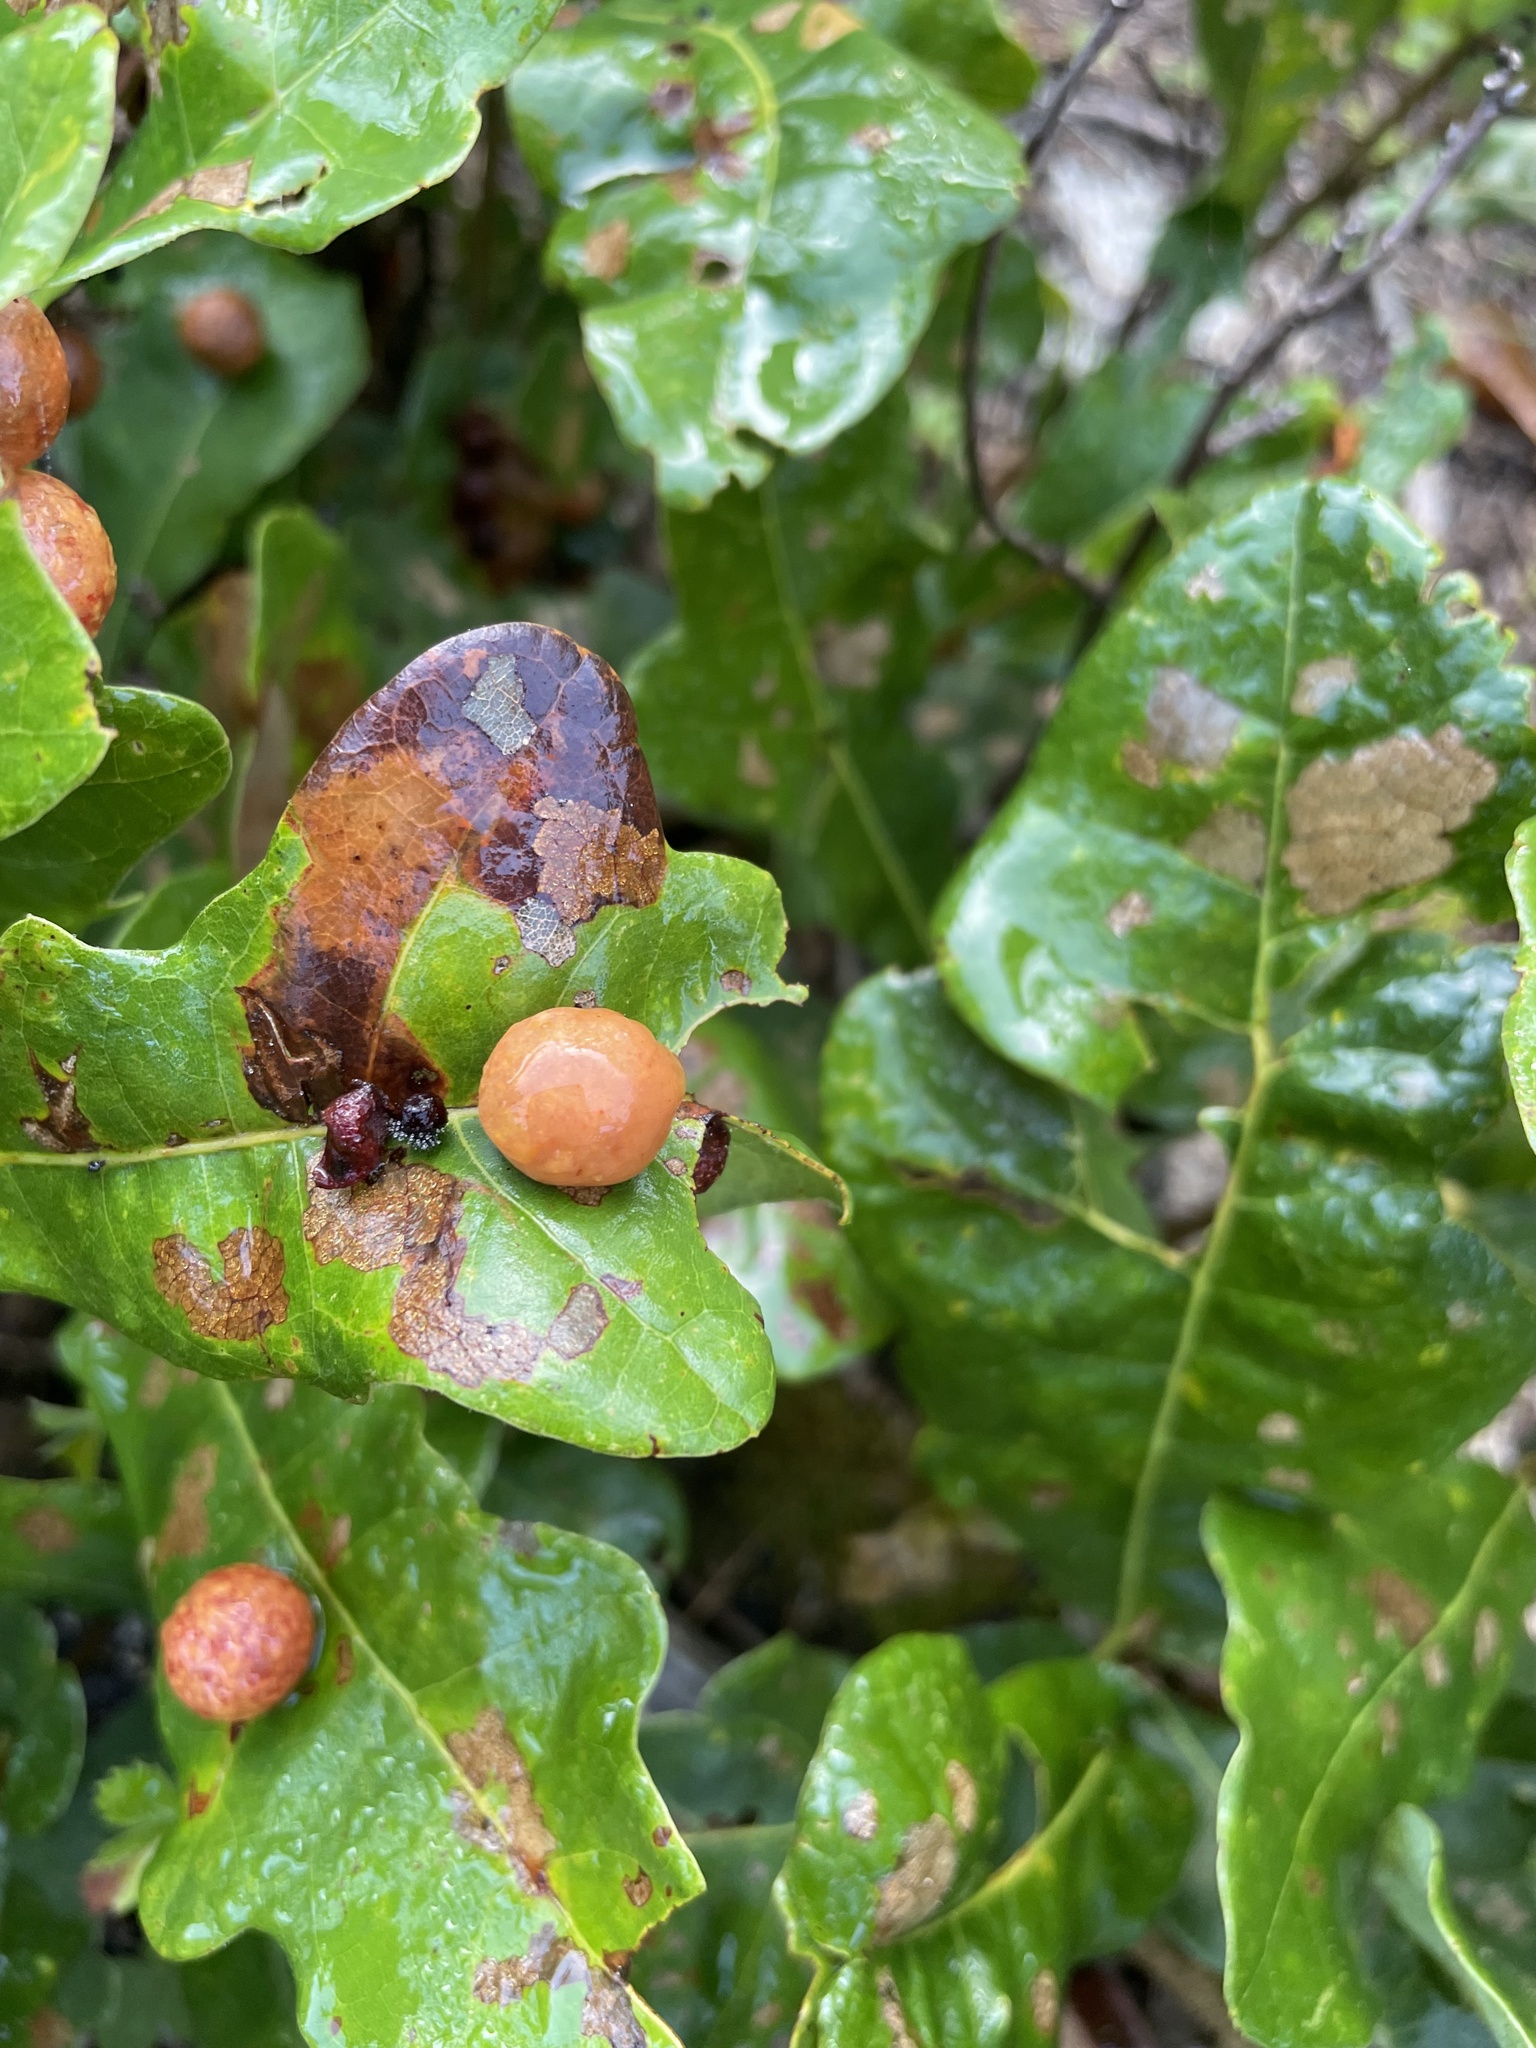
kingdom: Animalia
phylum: Arthropoda
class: Insecta
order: Diptera
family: Cecidomyiidae
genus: Polystepha
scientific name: Polystepha pilulae
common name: Oak leaf gall midge
